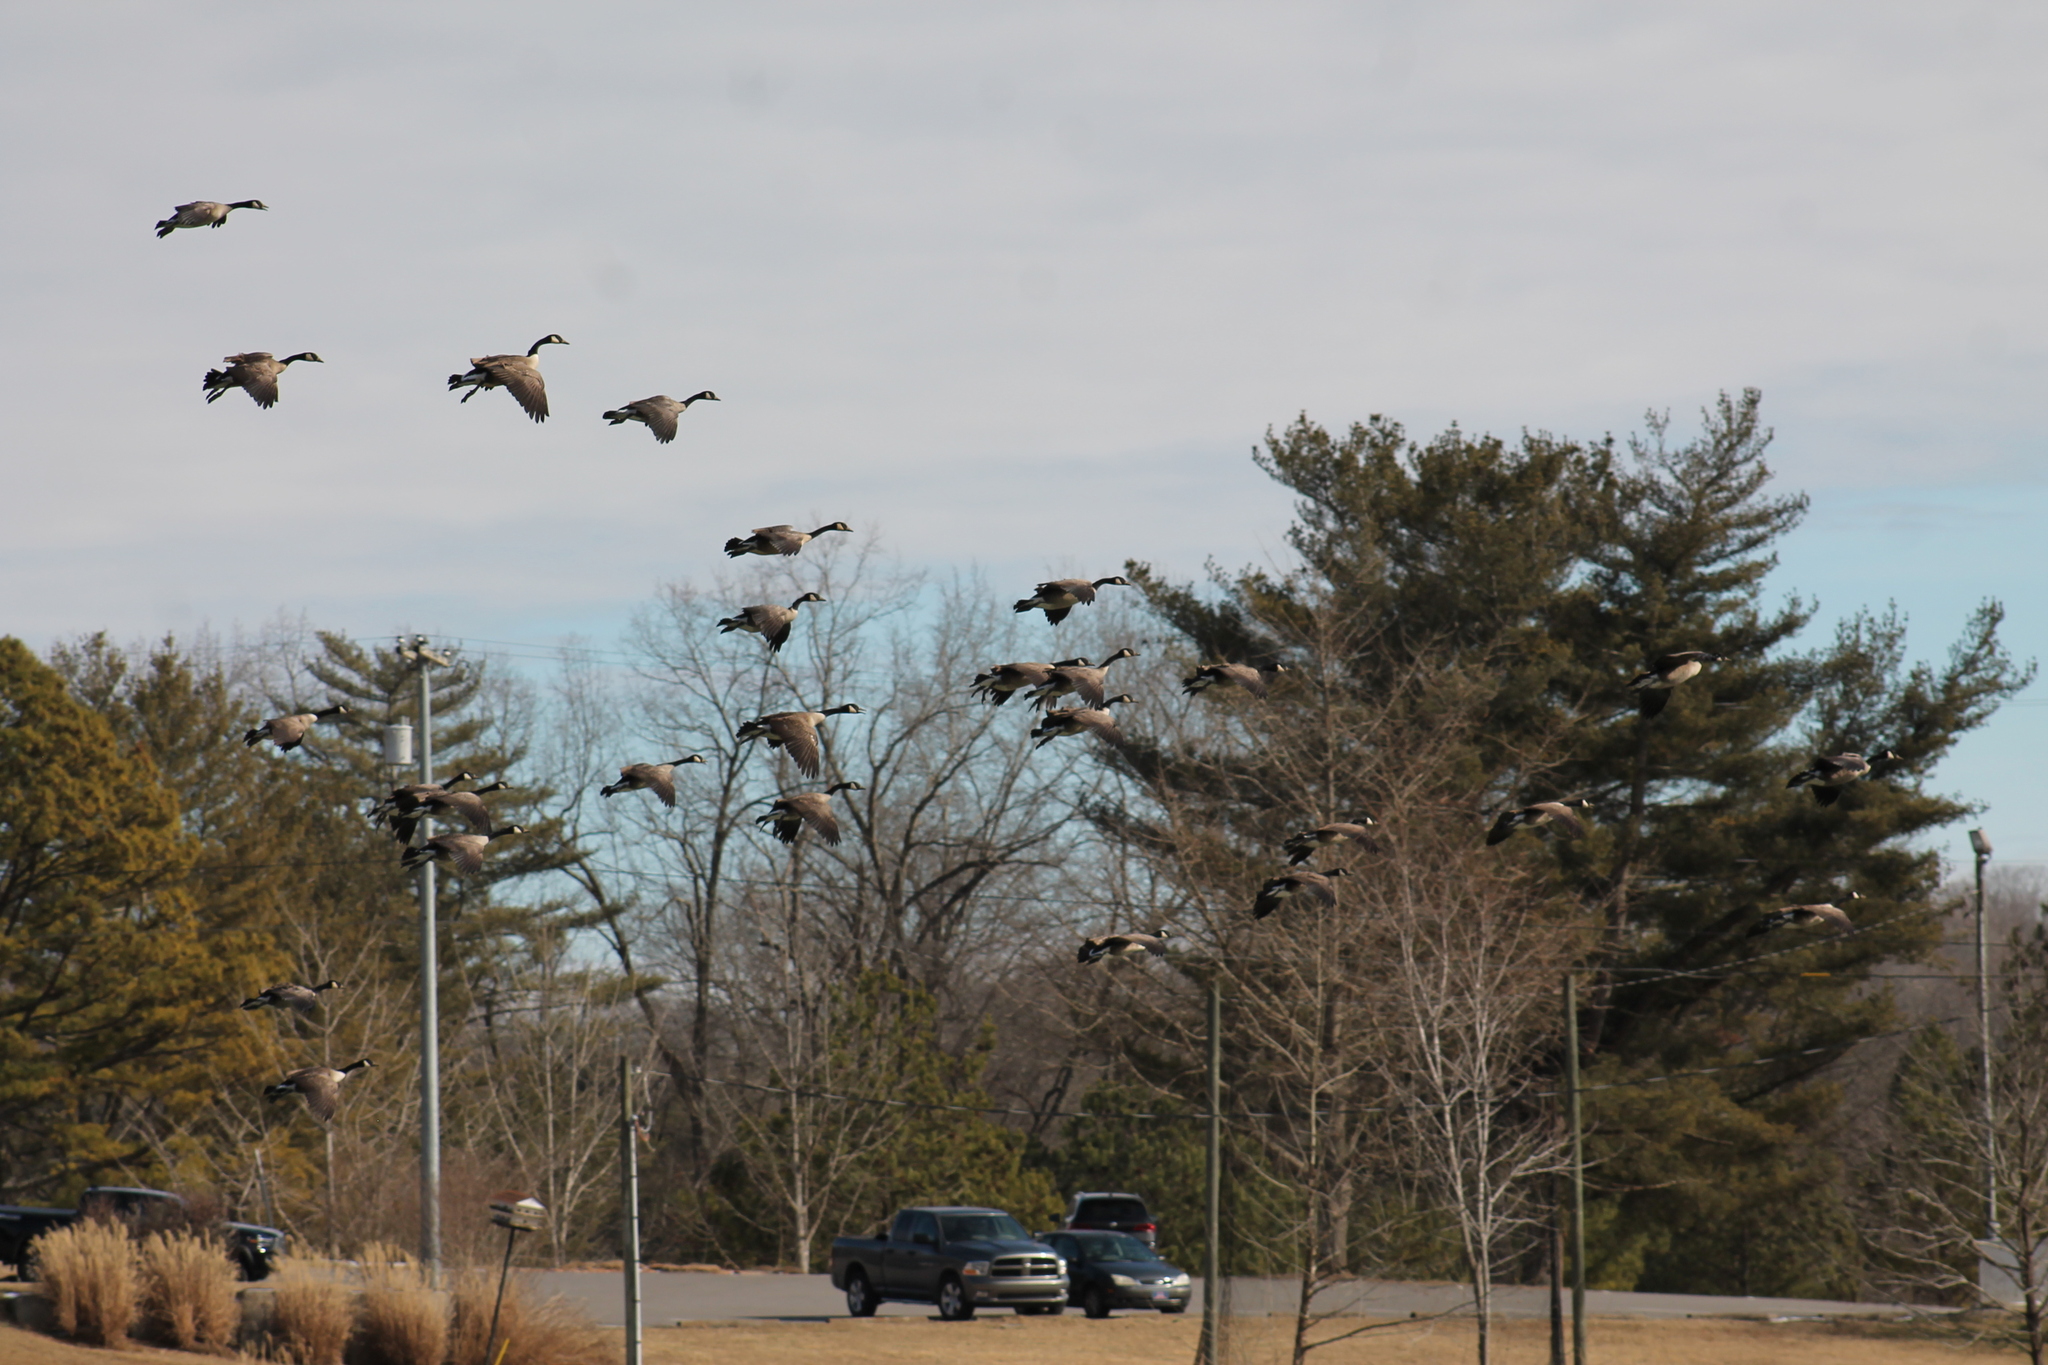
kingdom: Animalia
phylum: Chordata
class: Aves
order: Anseriformes
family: Anatidae
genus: Branta
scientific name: Branta canadensis
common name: Canada goose
